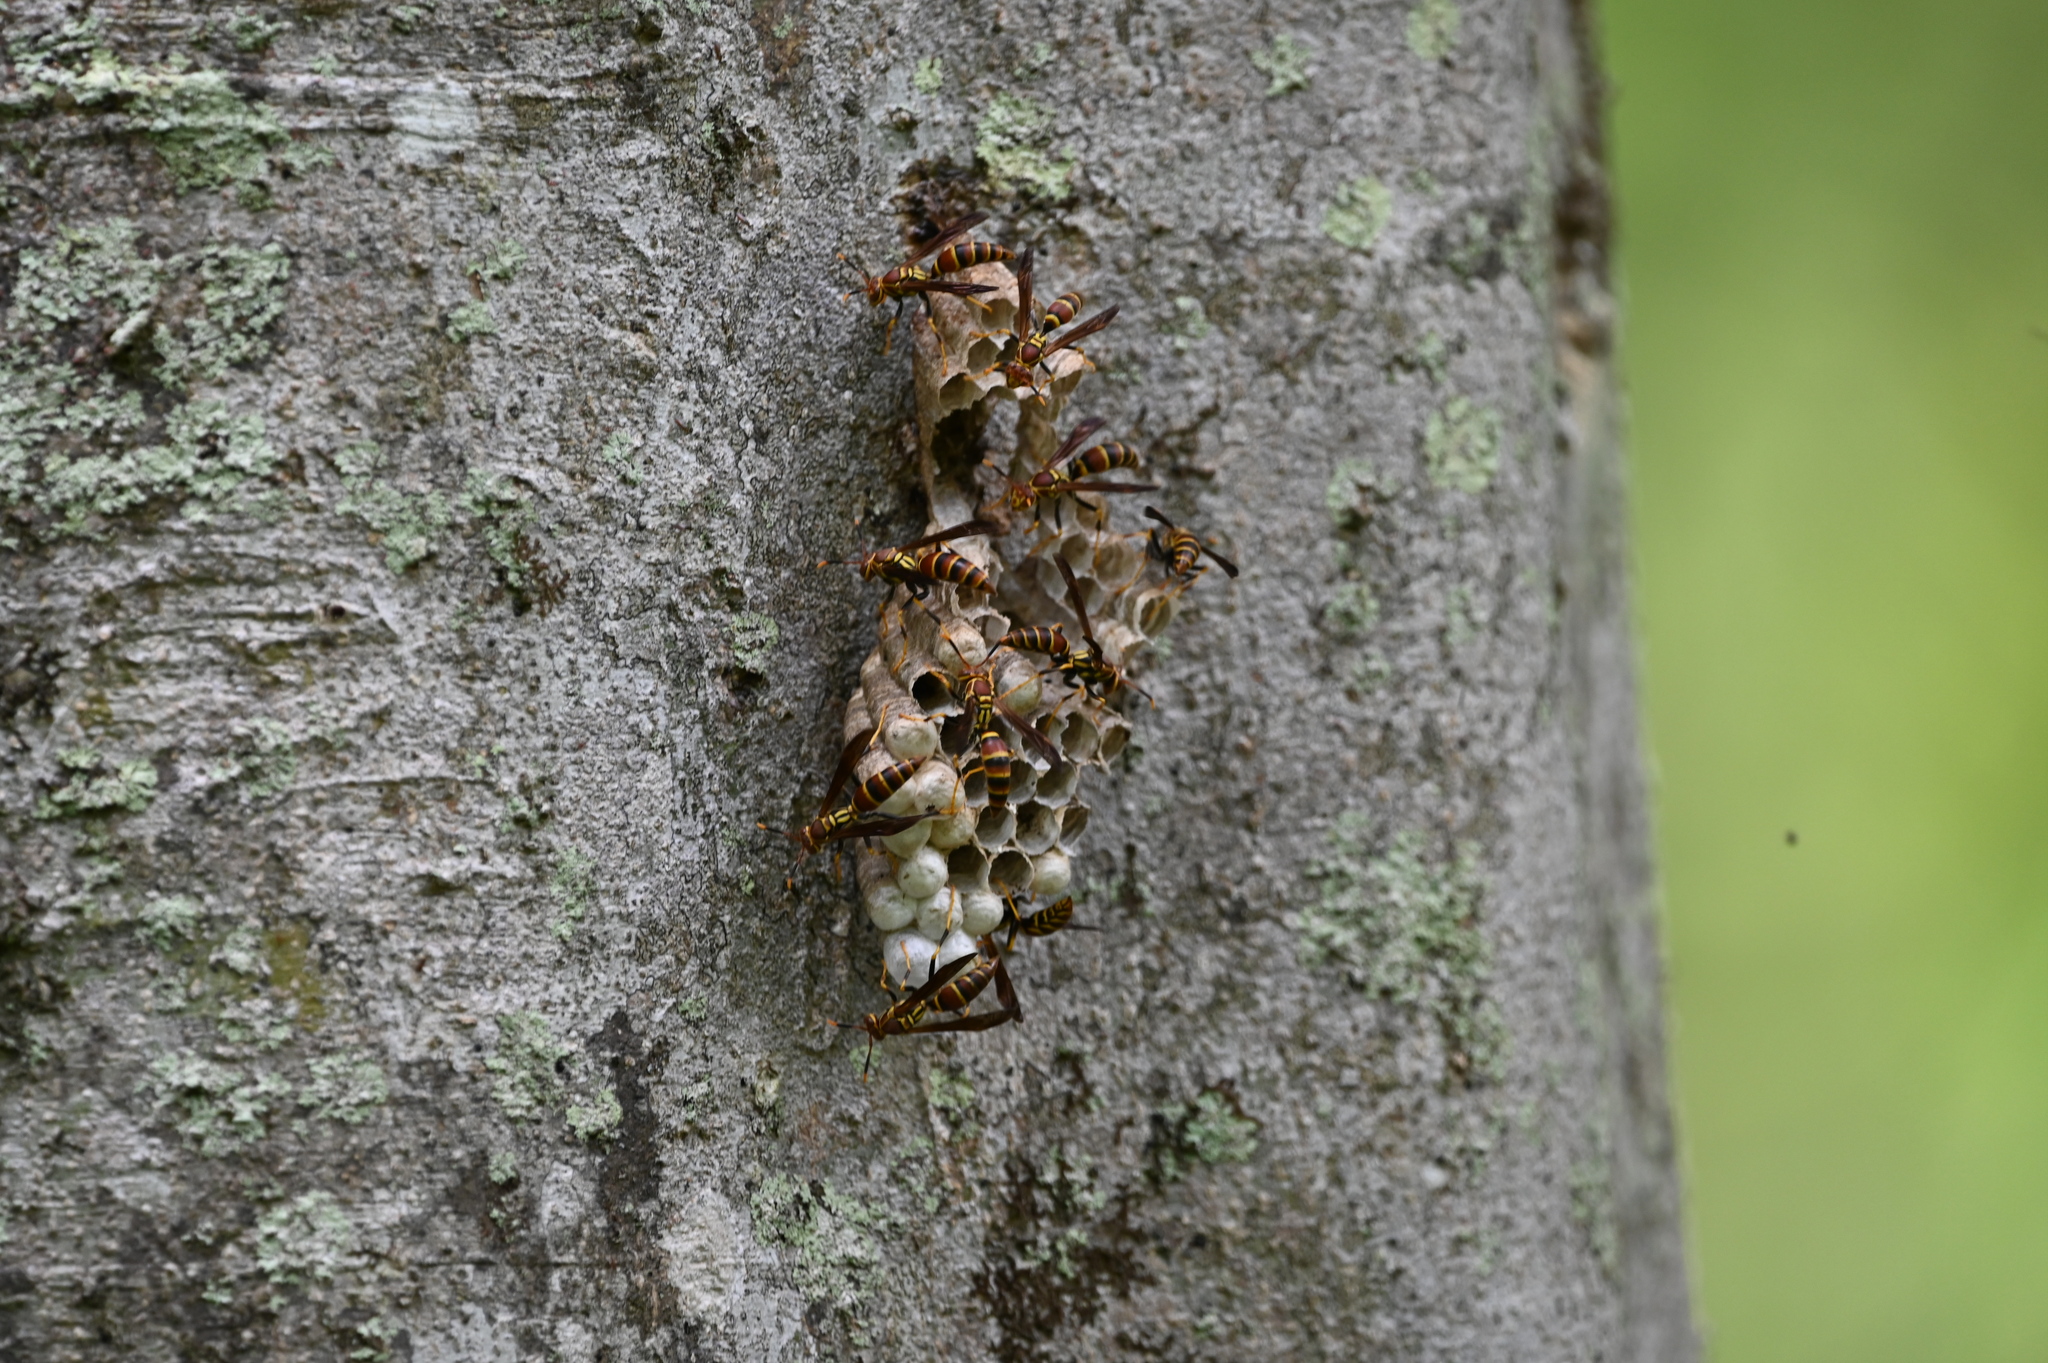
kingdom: Animalia
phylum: Arthropoda
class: Insecta
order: Hymenoptera
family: Eumenidae
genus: Polistes
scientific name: Polistes exclamans
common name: Paper wasp
